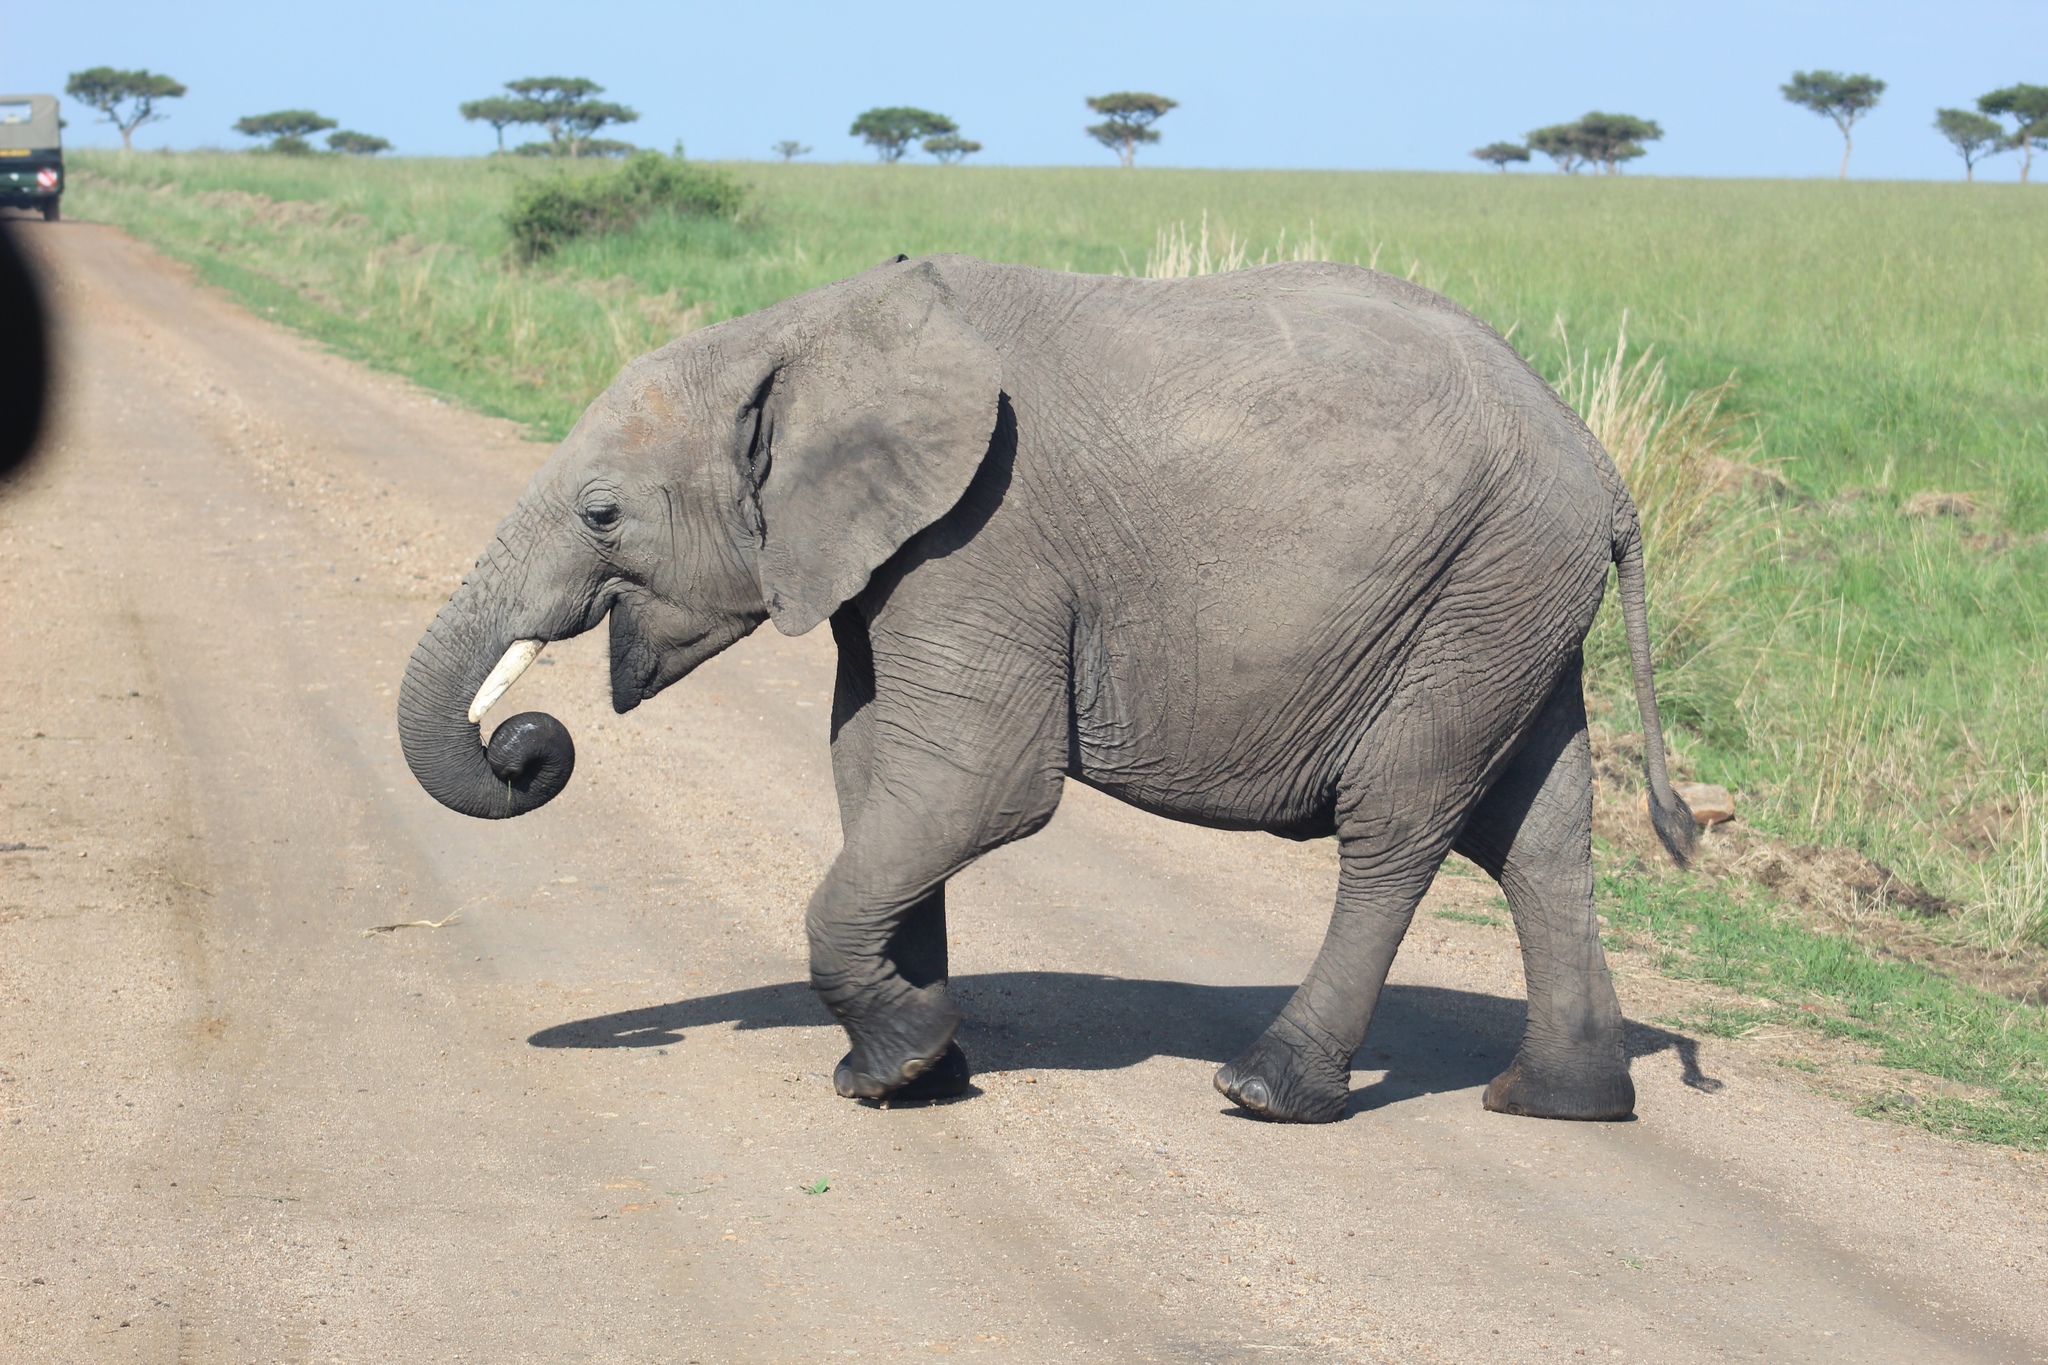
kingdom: Animalia
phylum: Chordata
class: Mammalia
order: Proboscidea
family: Elephantidae
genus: Loxodonta
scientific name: Loxodonta africana
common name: African elephant
